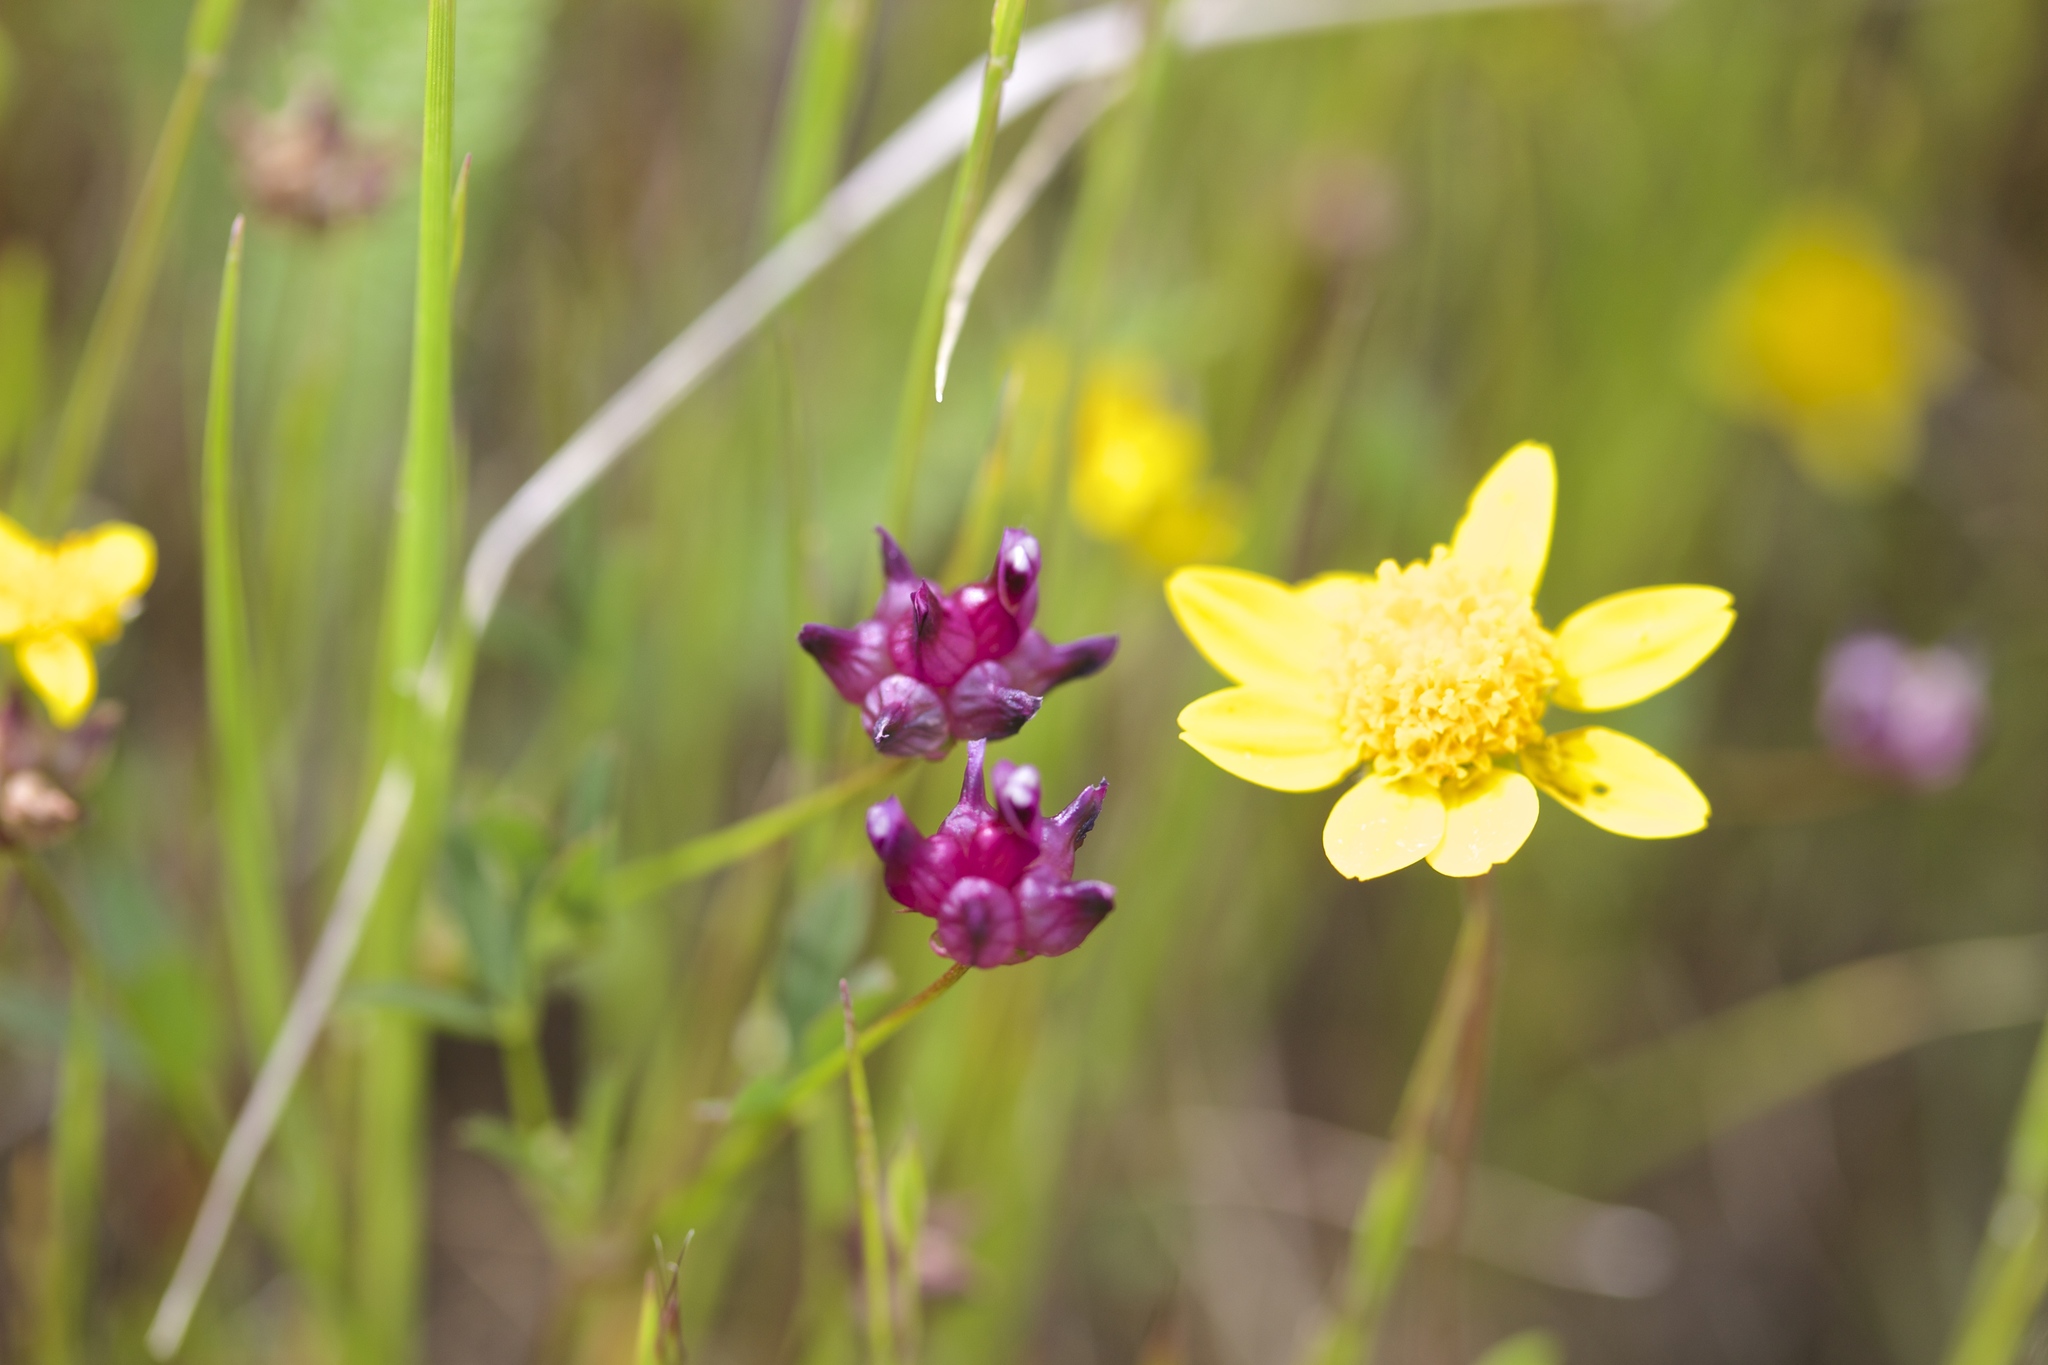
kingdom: Plantae
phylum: Tracheophyta
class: Magnoliopsida
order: Fabales
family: Fabaceae
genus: Trifolium
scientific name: Trifolium depauperatum
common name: Poverty clover
